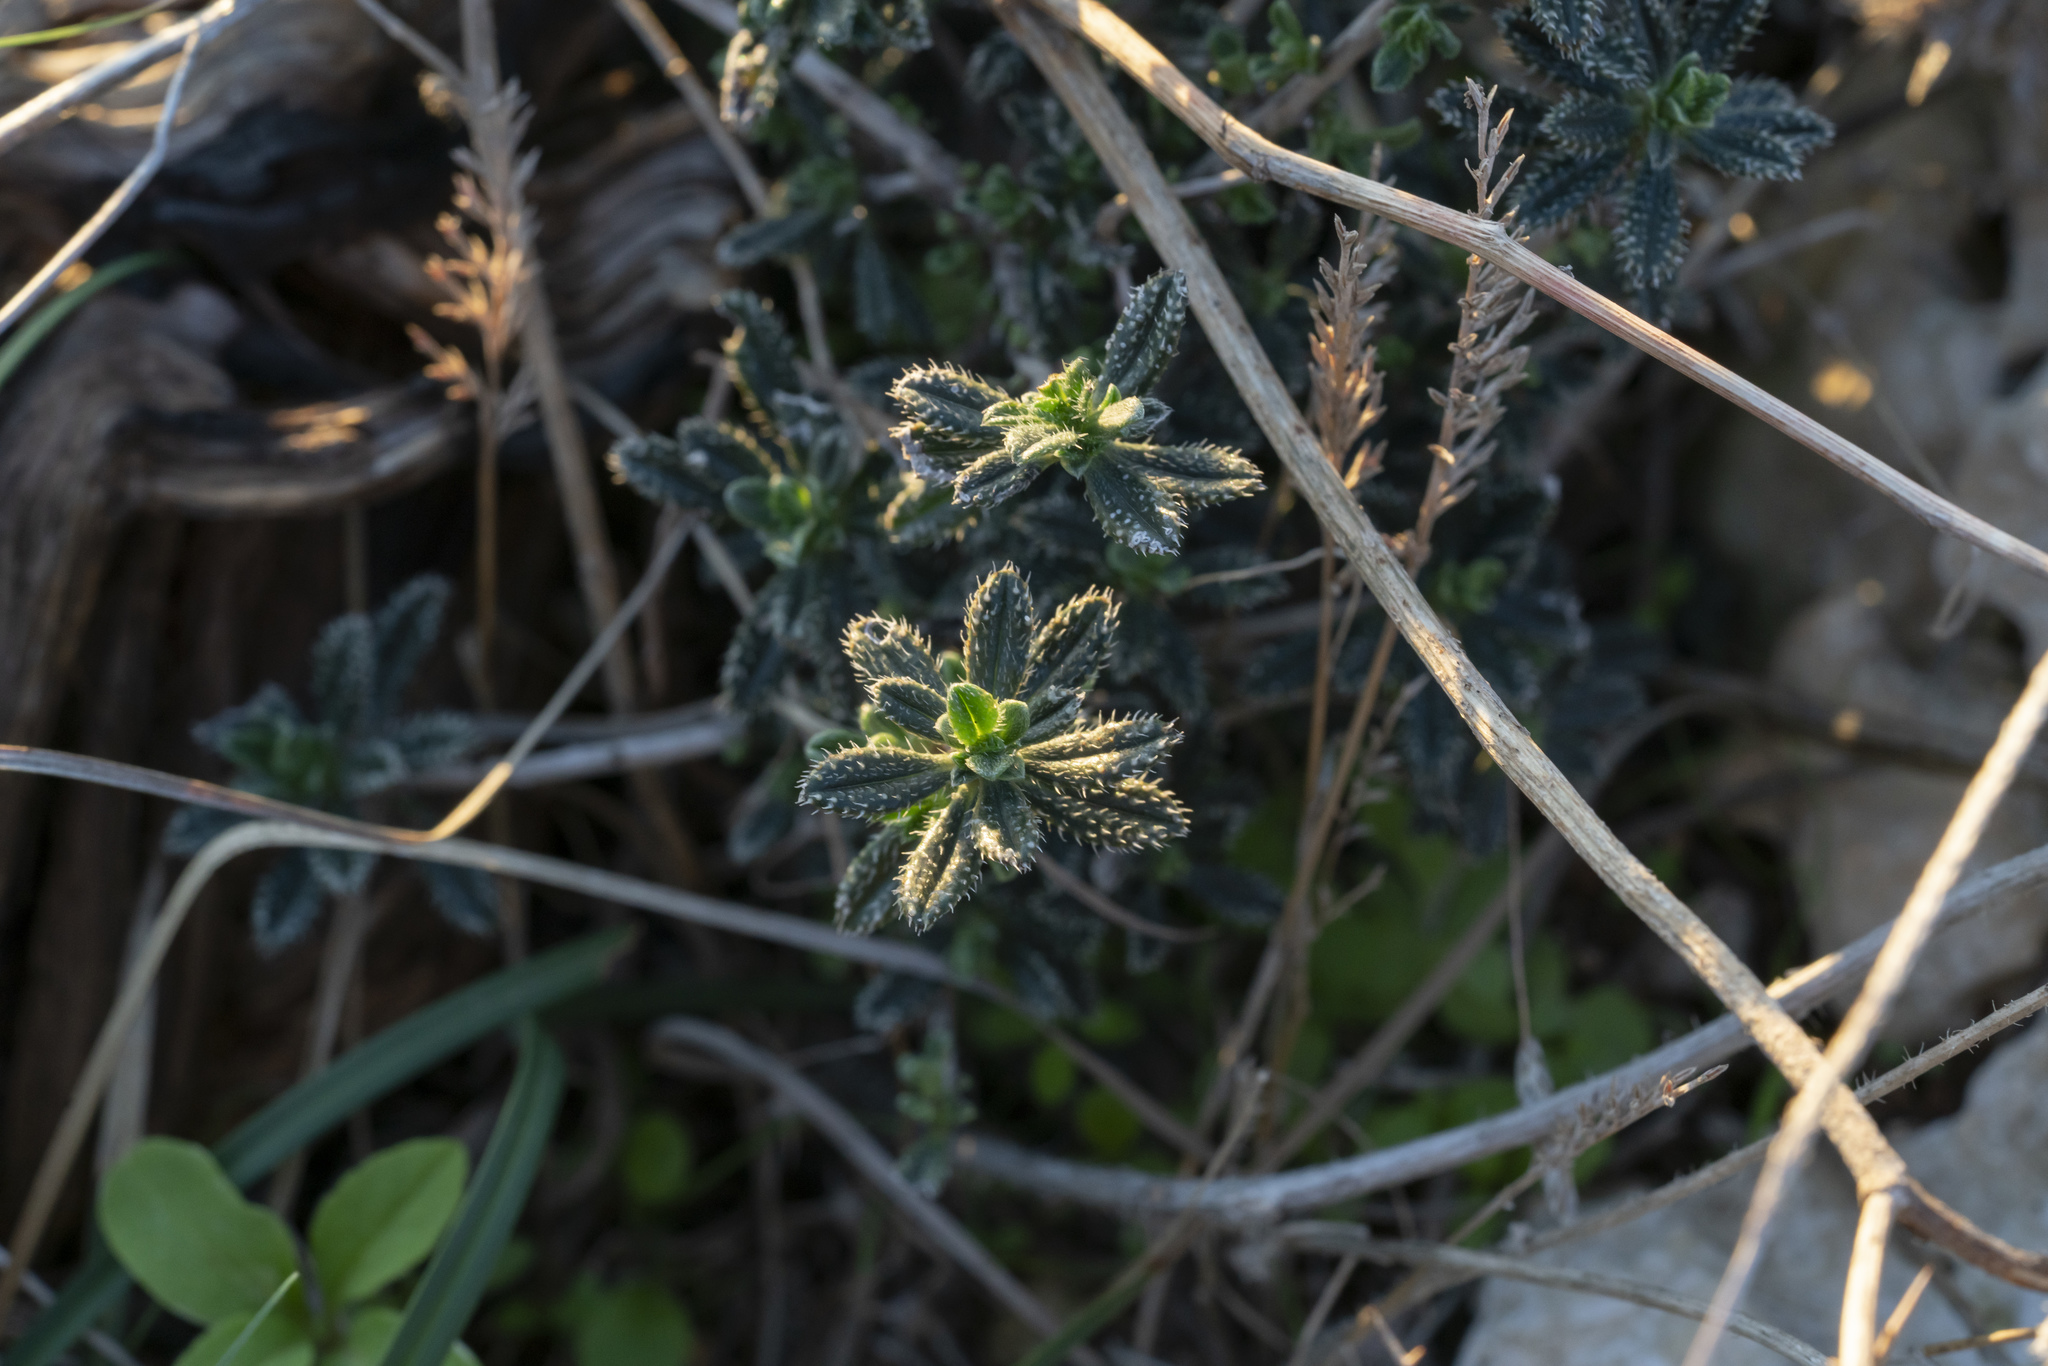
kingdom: Plantae
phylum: Tracheophyta
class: Magnoliopsida
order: Boraginales
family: Boraginaceae
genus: Lithodora
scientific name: Lithodora hispidula
